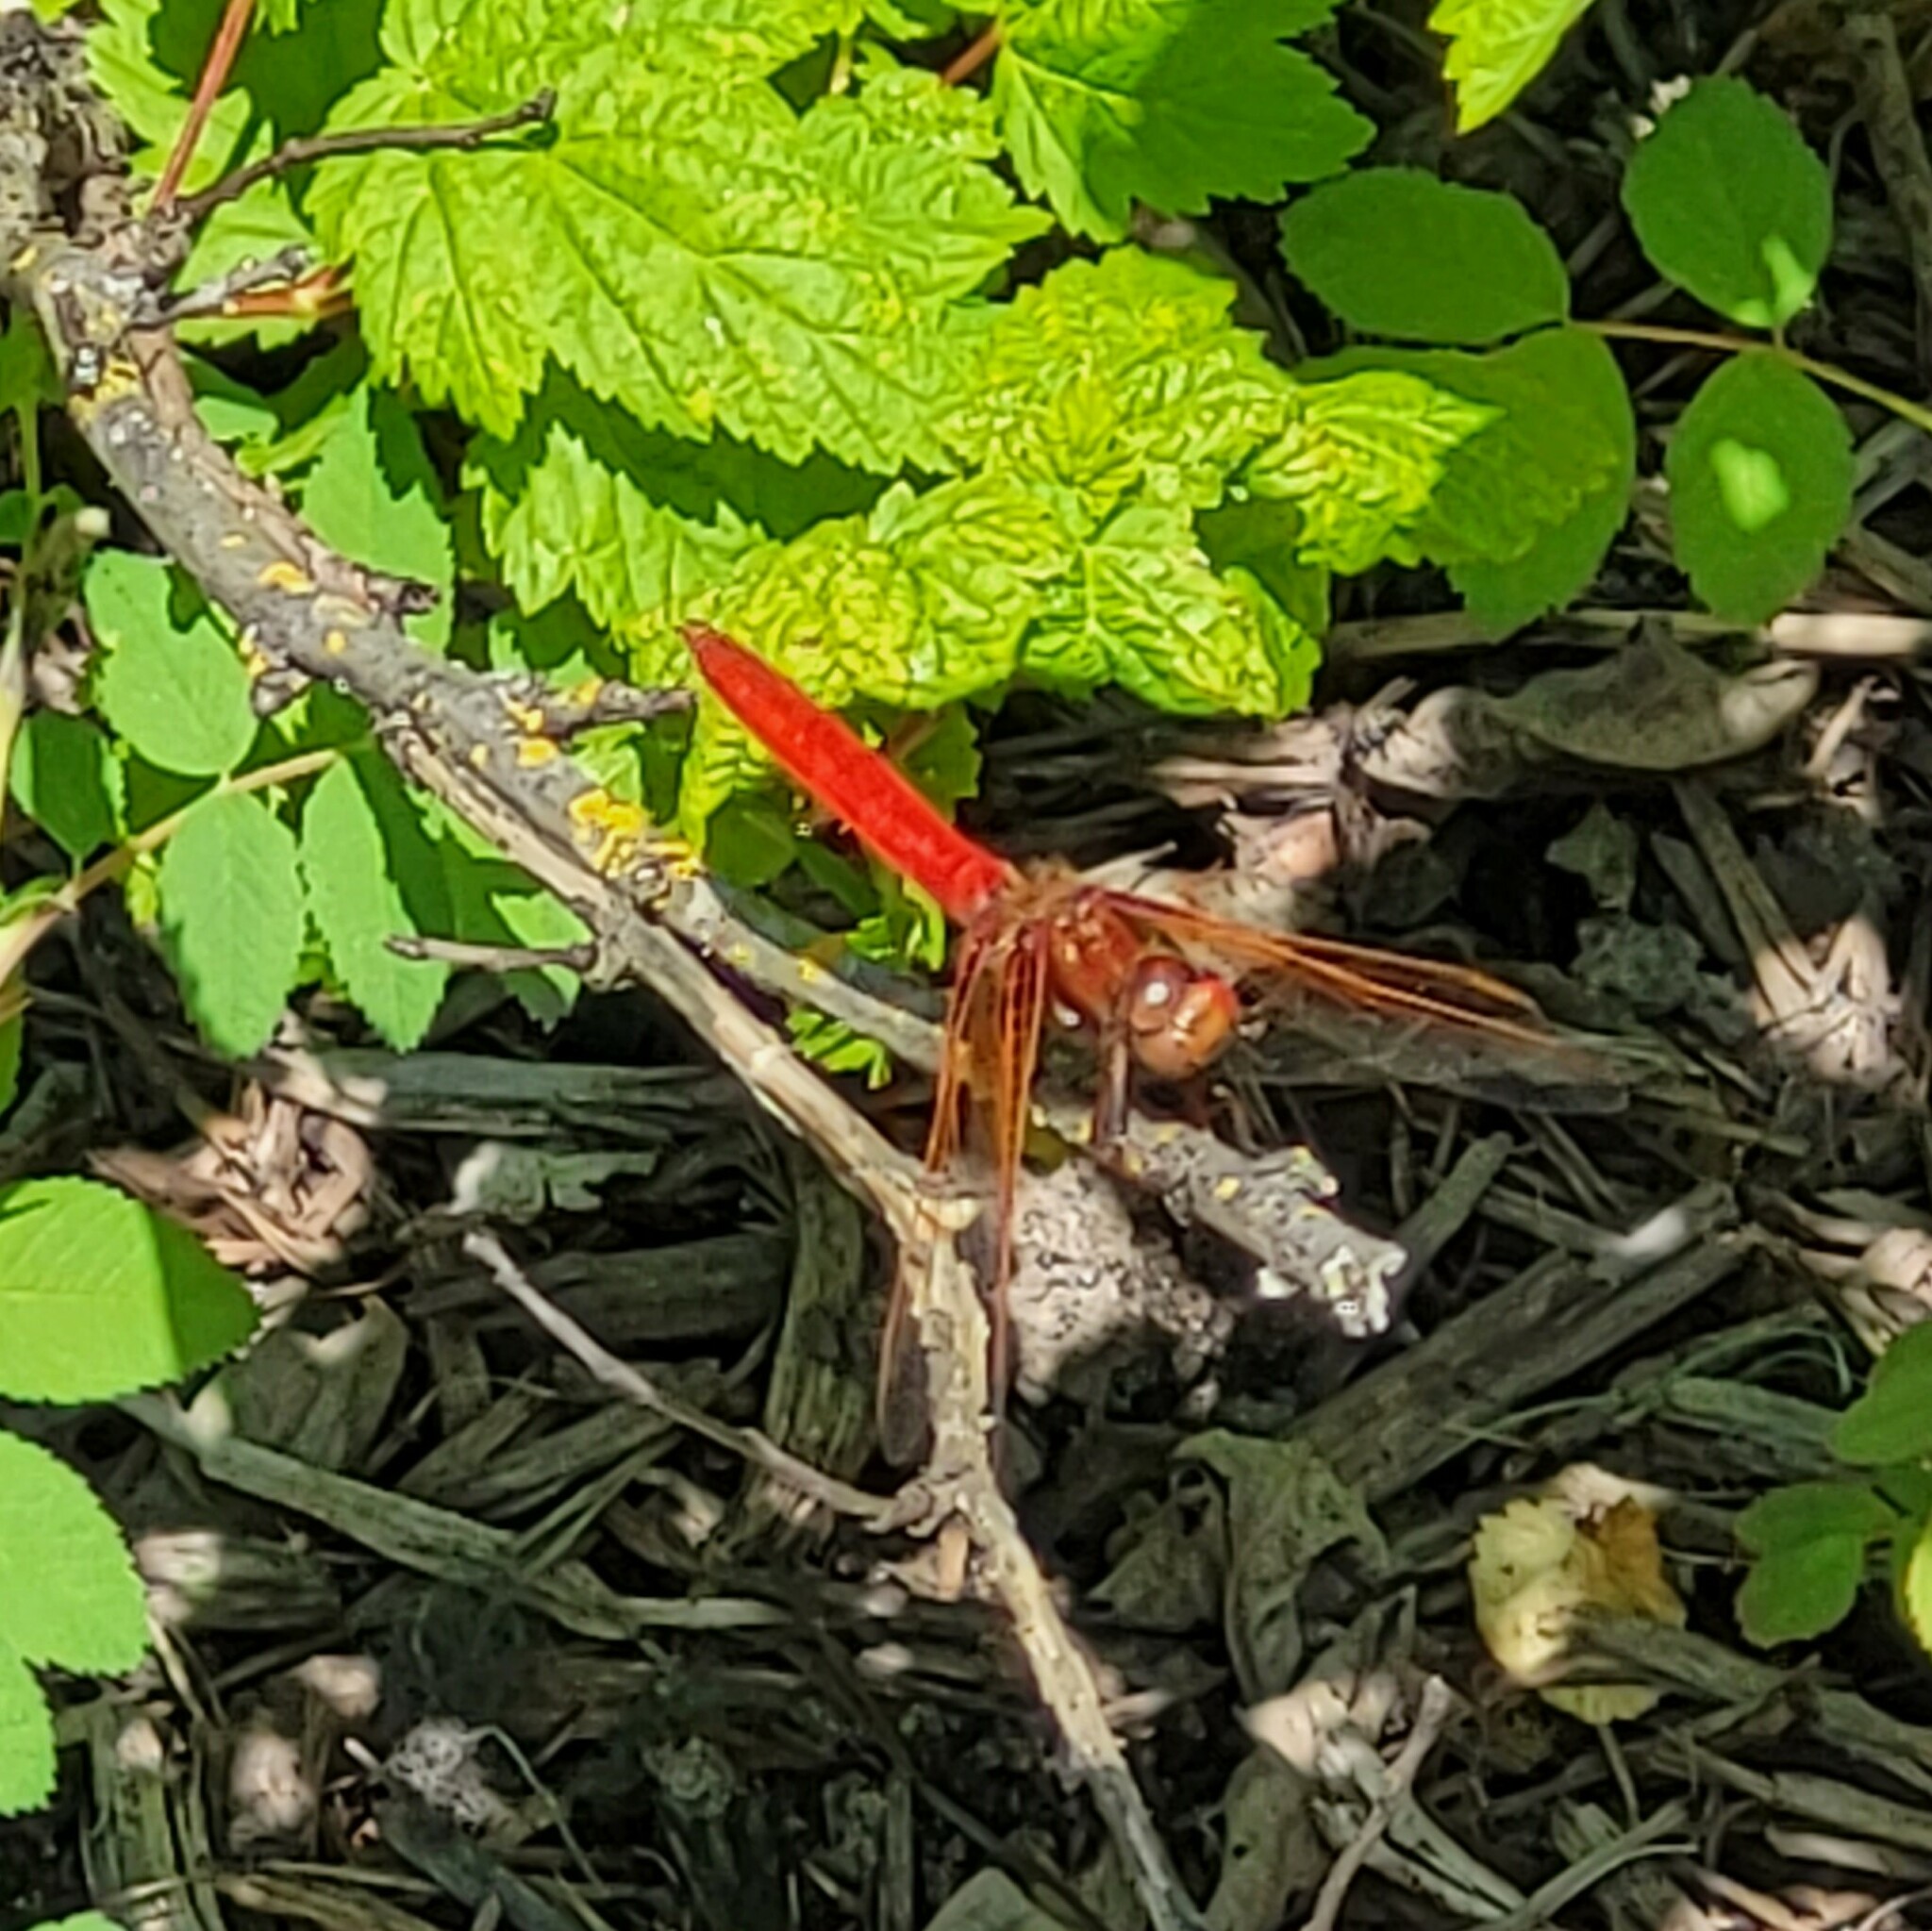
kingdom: Animalia
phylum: Arthropoda
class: Insecta
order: Odonata
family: Libellulidae
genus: Sympetrum
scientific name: Sympetrum illotum
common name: Cardinal meadowhawk
